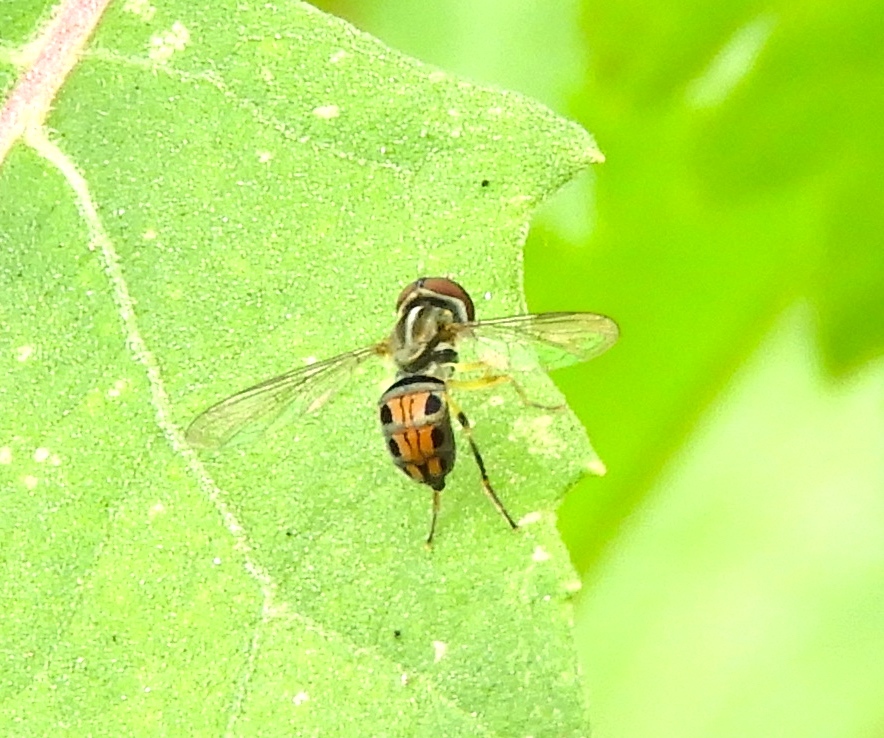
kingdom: Animalia
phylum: Arthropoda
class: Insecta
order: Diptera
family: Syrphidae
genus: Toxomerus
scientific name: Toxomerus bistrigus
